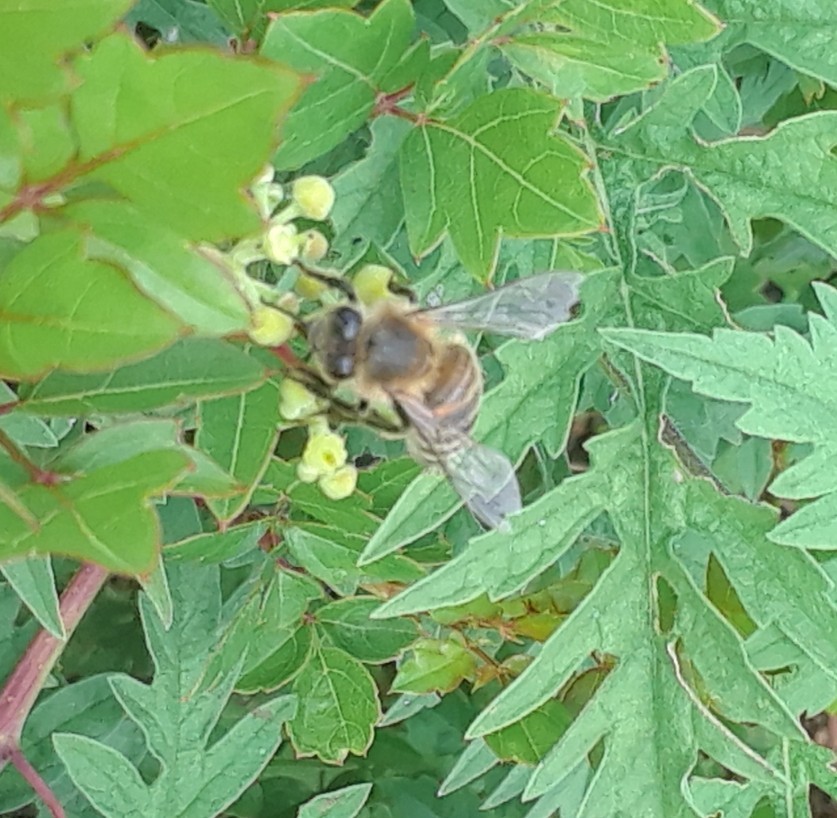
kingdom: Animalia
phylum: Arthropoda
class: Insecta
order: Hymenoptera
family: Apidae
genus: Apis
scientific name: Apis mellifera
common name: Honey bee
